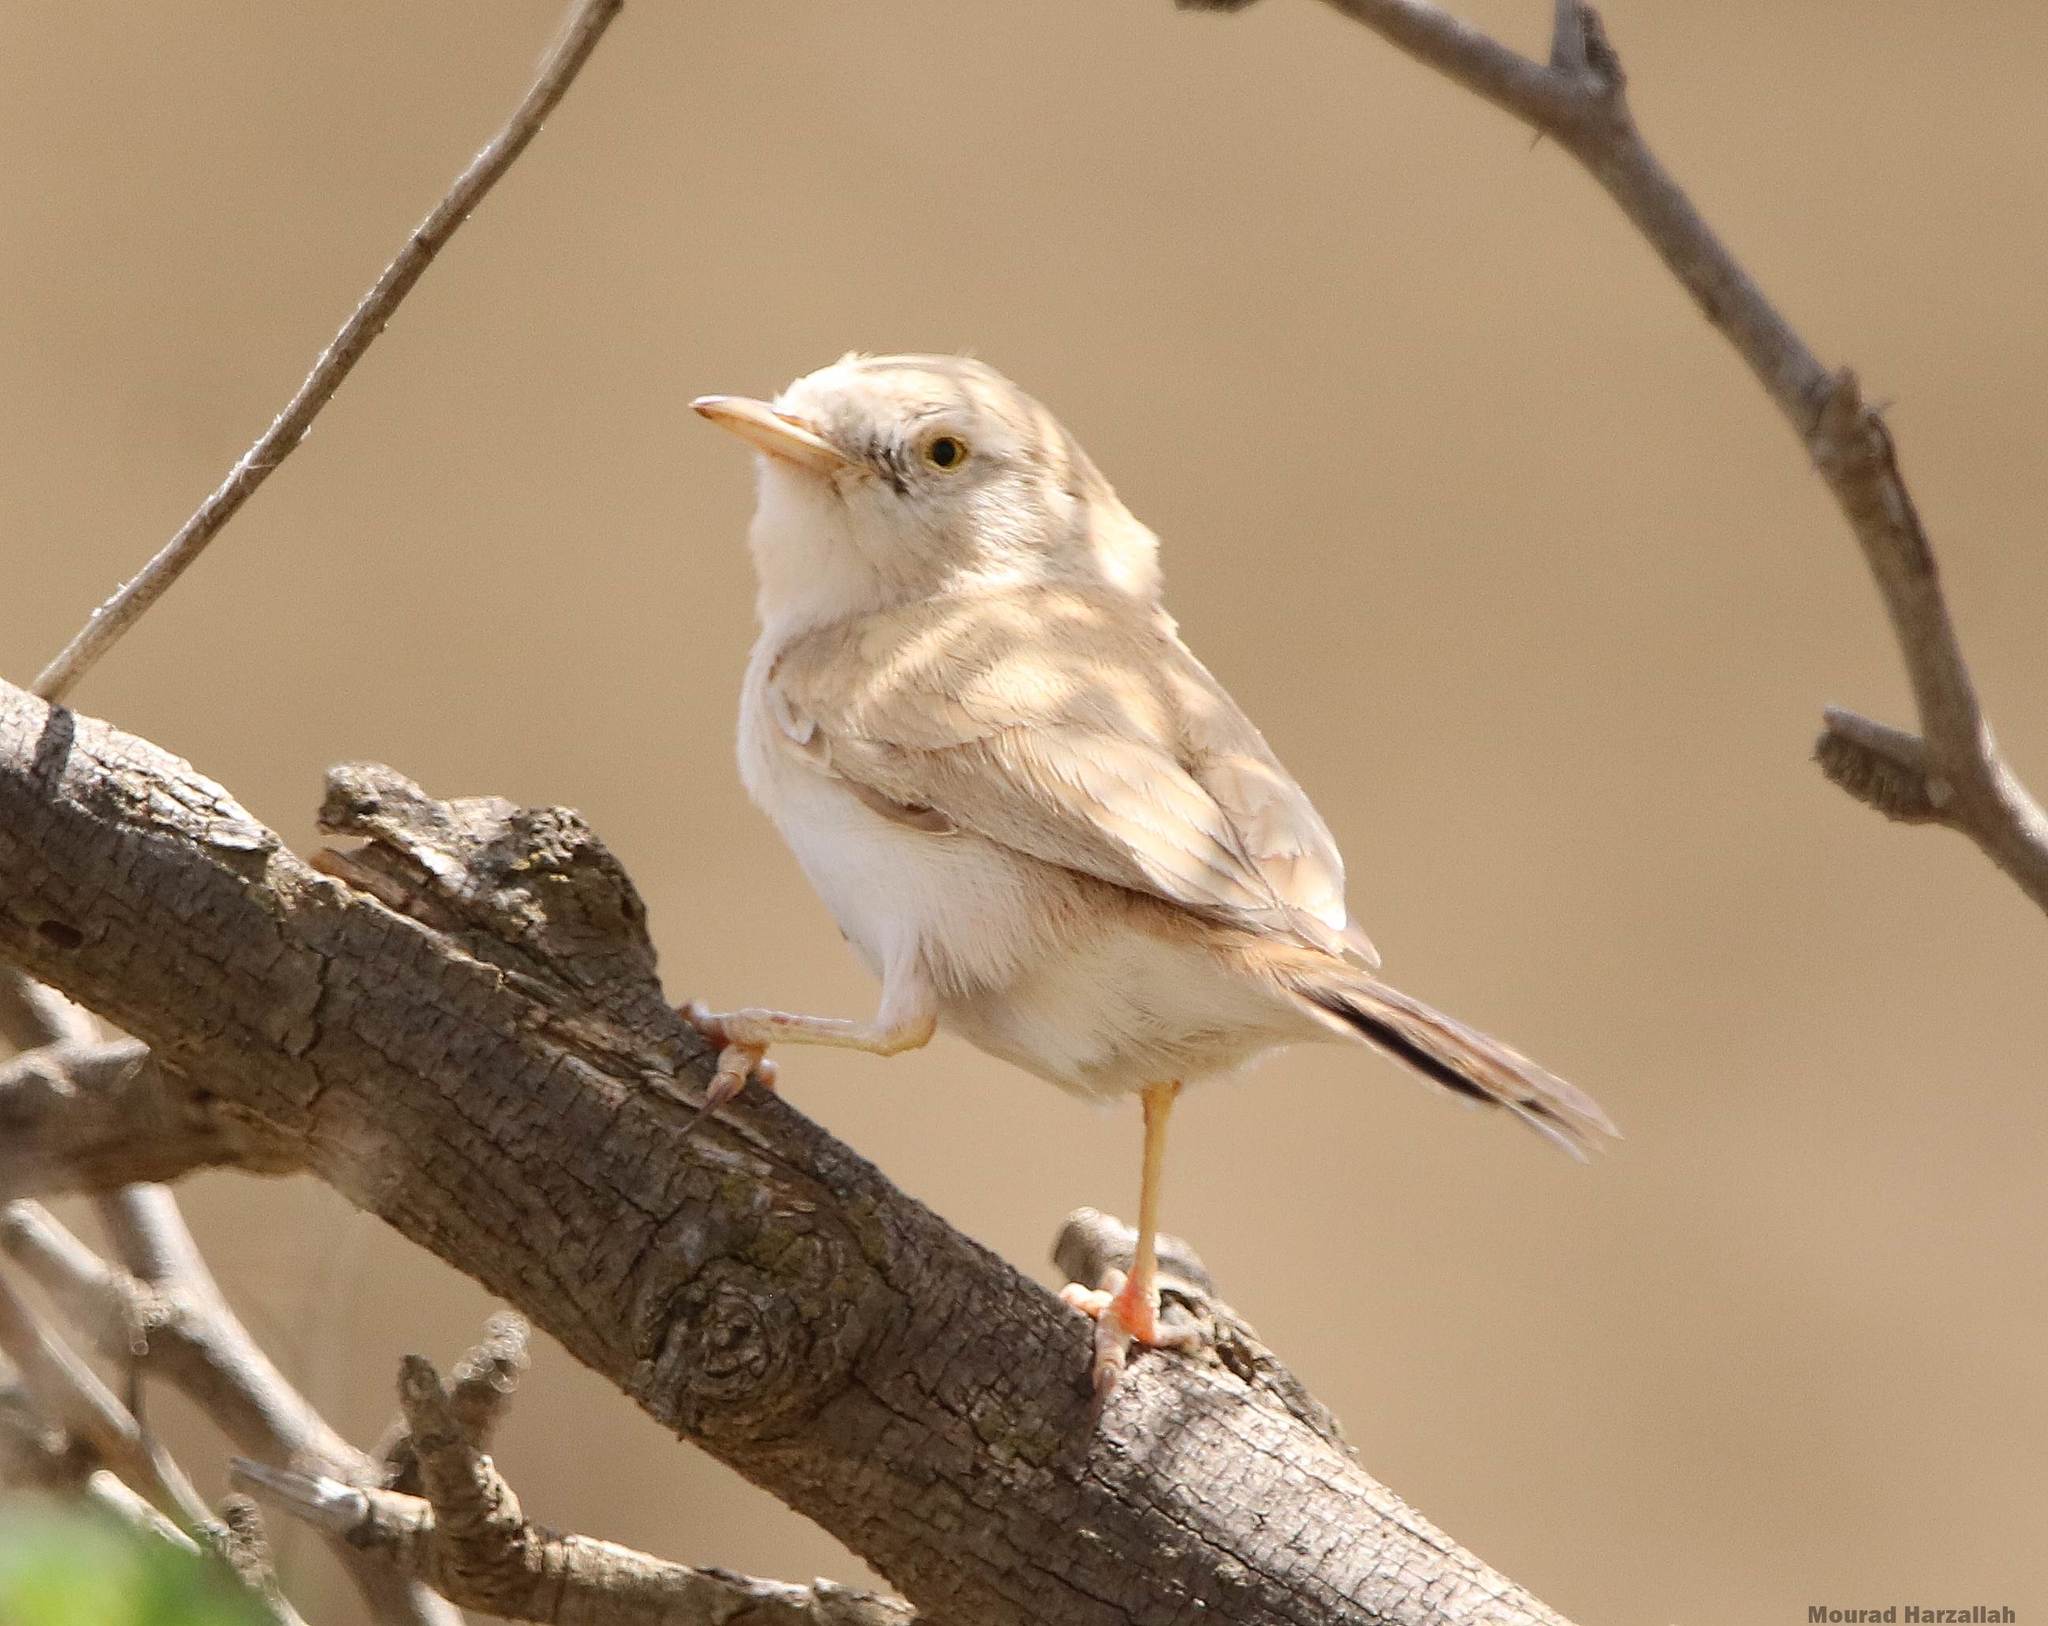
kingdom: Animalia
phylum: Chordata
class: Aves
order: Passeriformes
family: Sylviidae
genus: Sylvia
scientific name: Sylvia deserti
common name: African desert warbler
